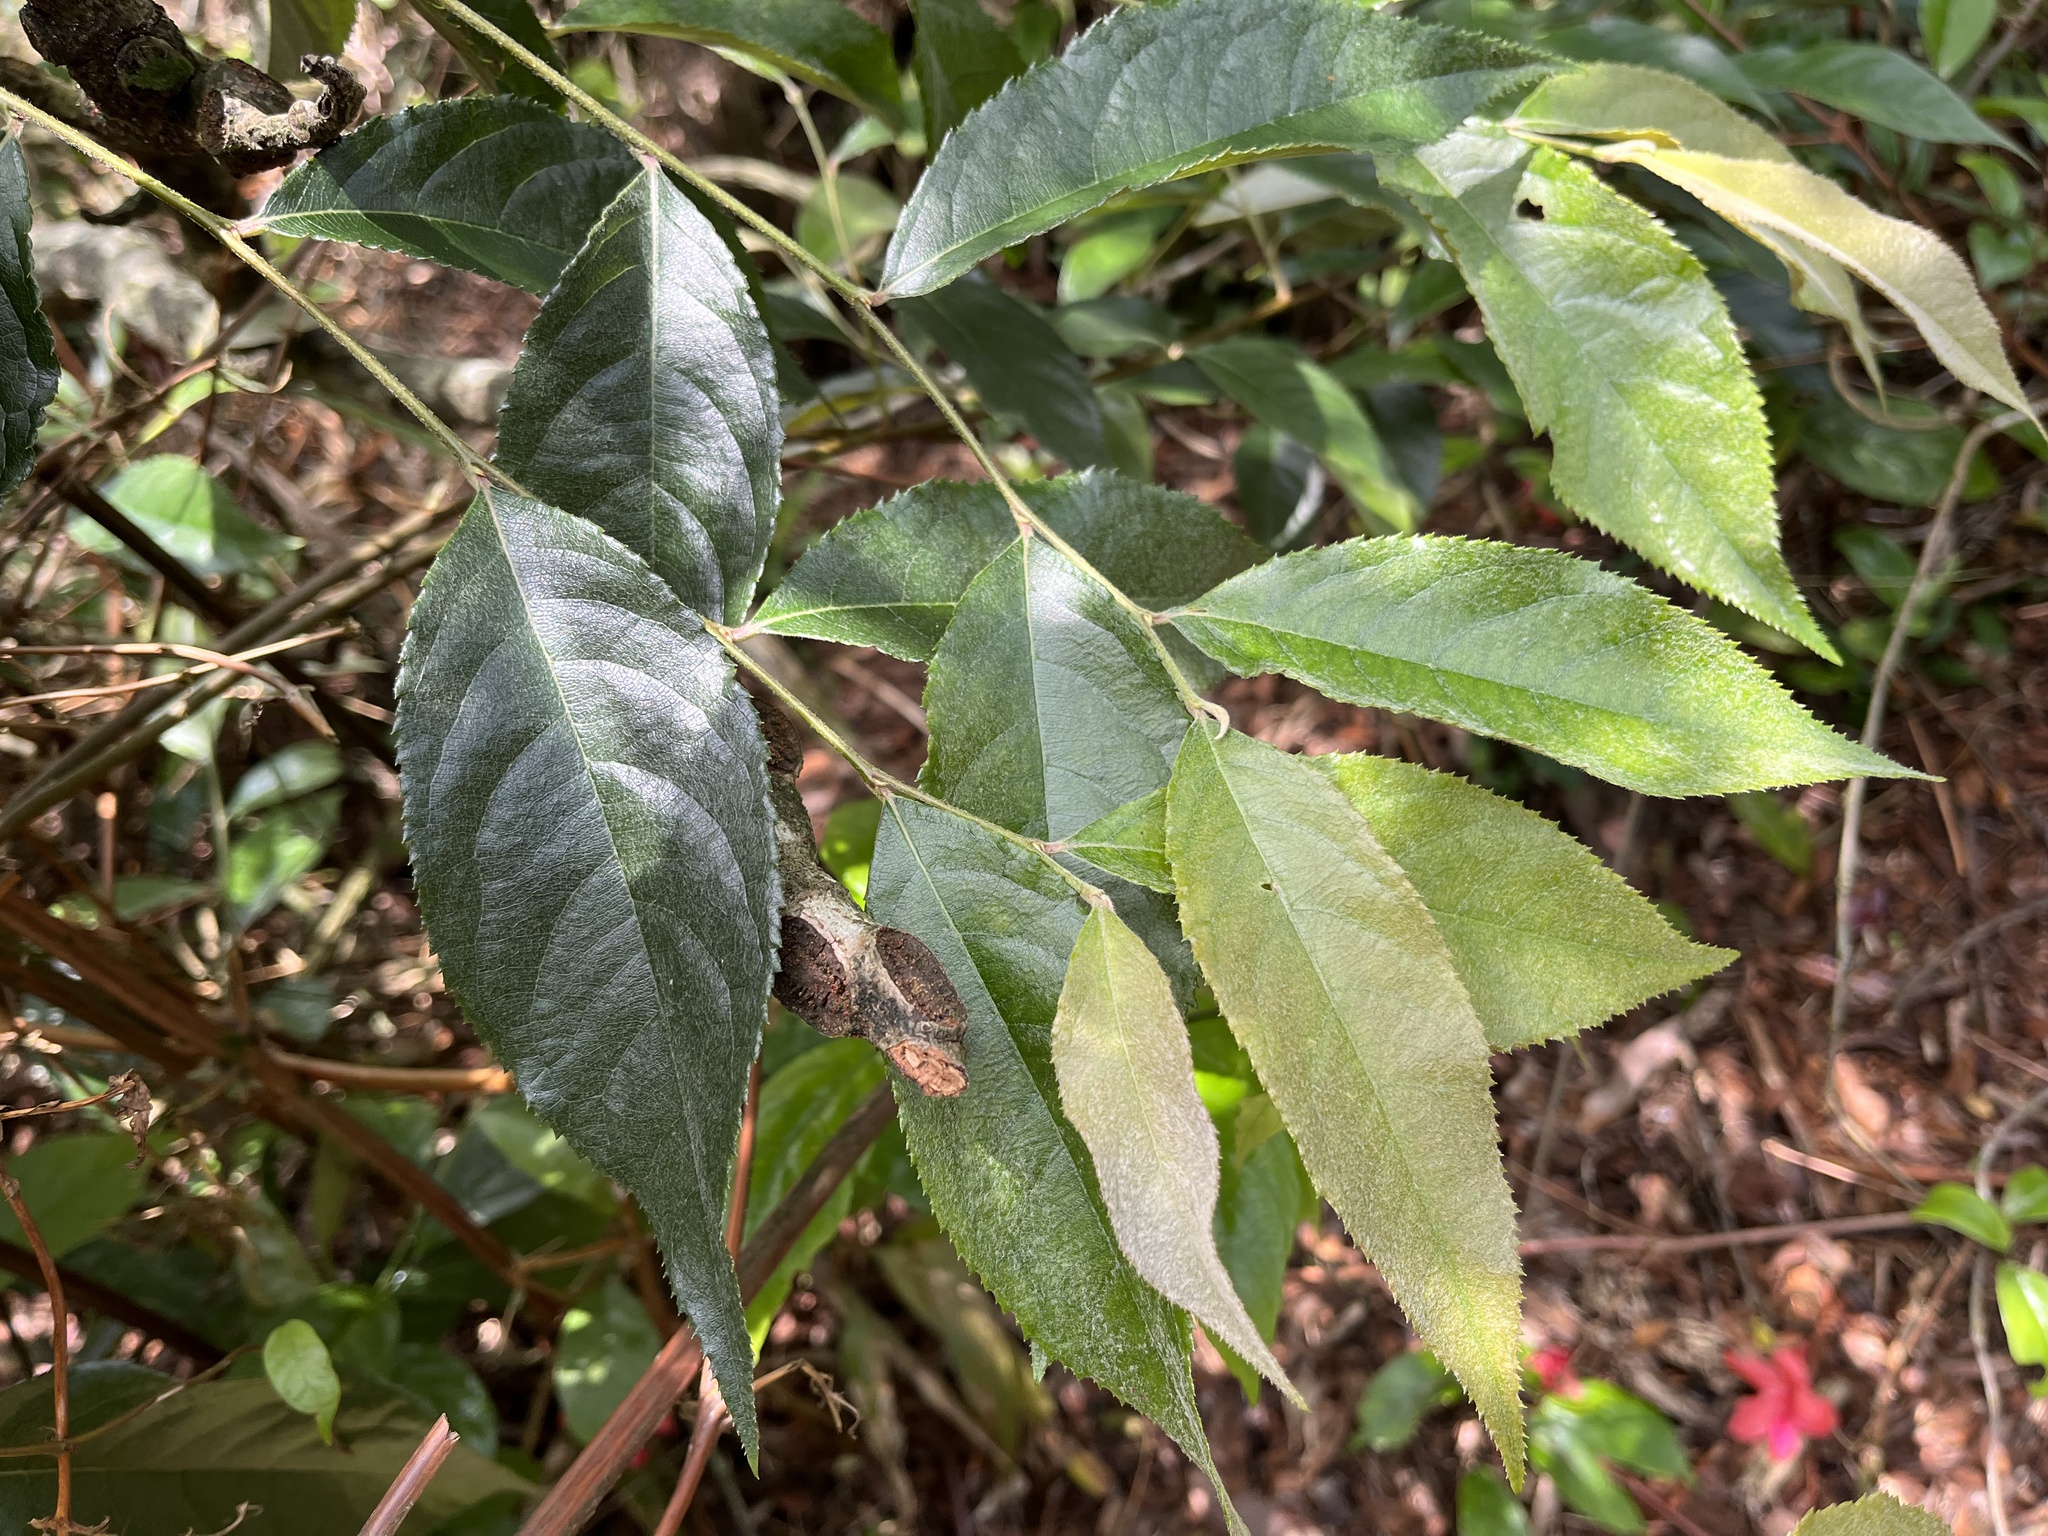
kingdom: Plantae
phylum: Tracheophyta
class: Magnoliopsida
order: Rosales
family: Rosaceae
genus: Pourthiaea
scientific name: Pourthiaea beauverdiana
